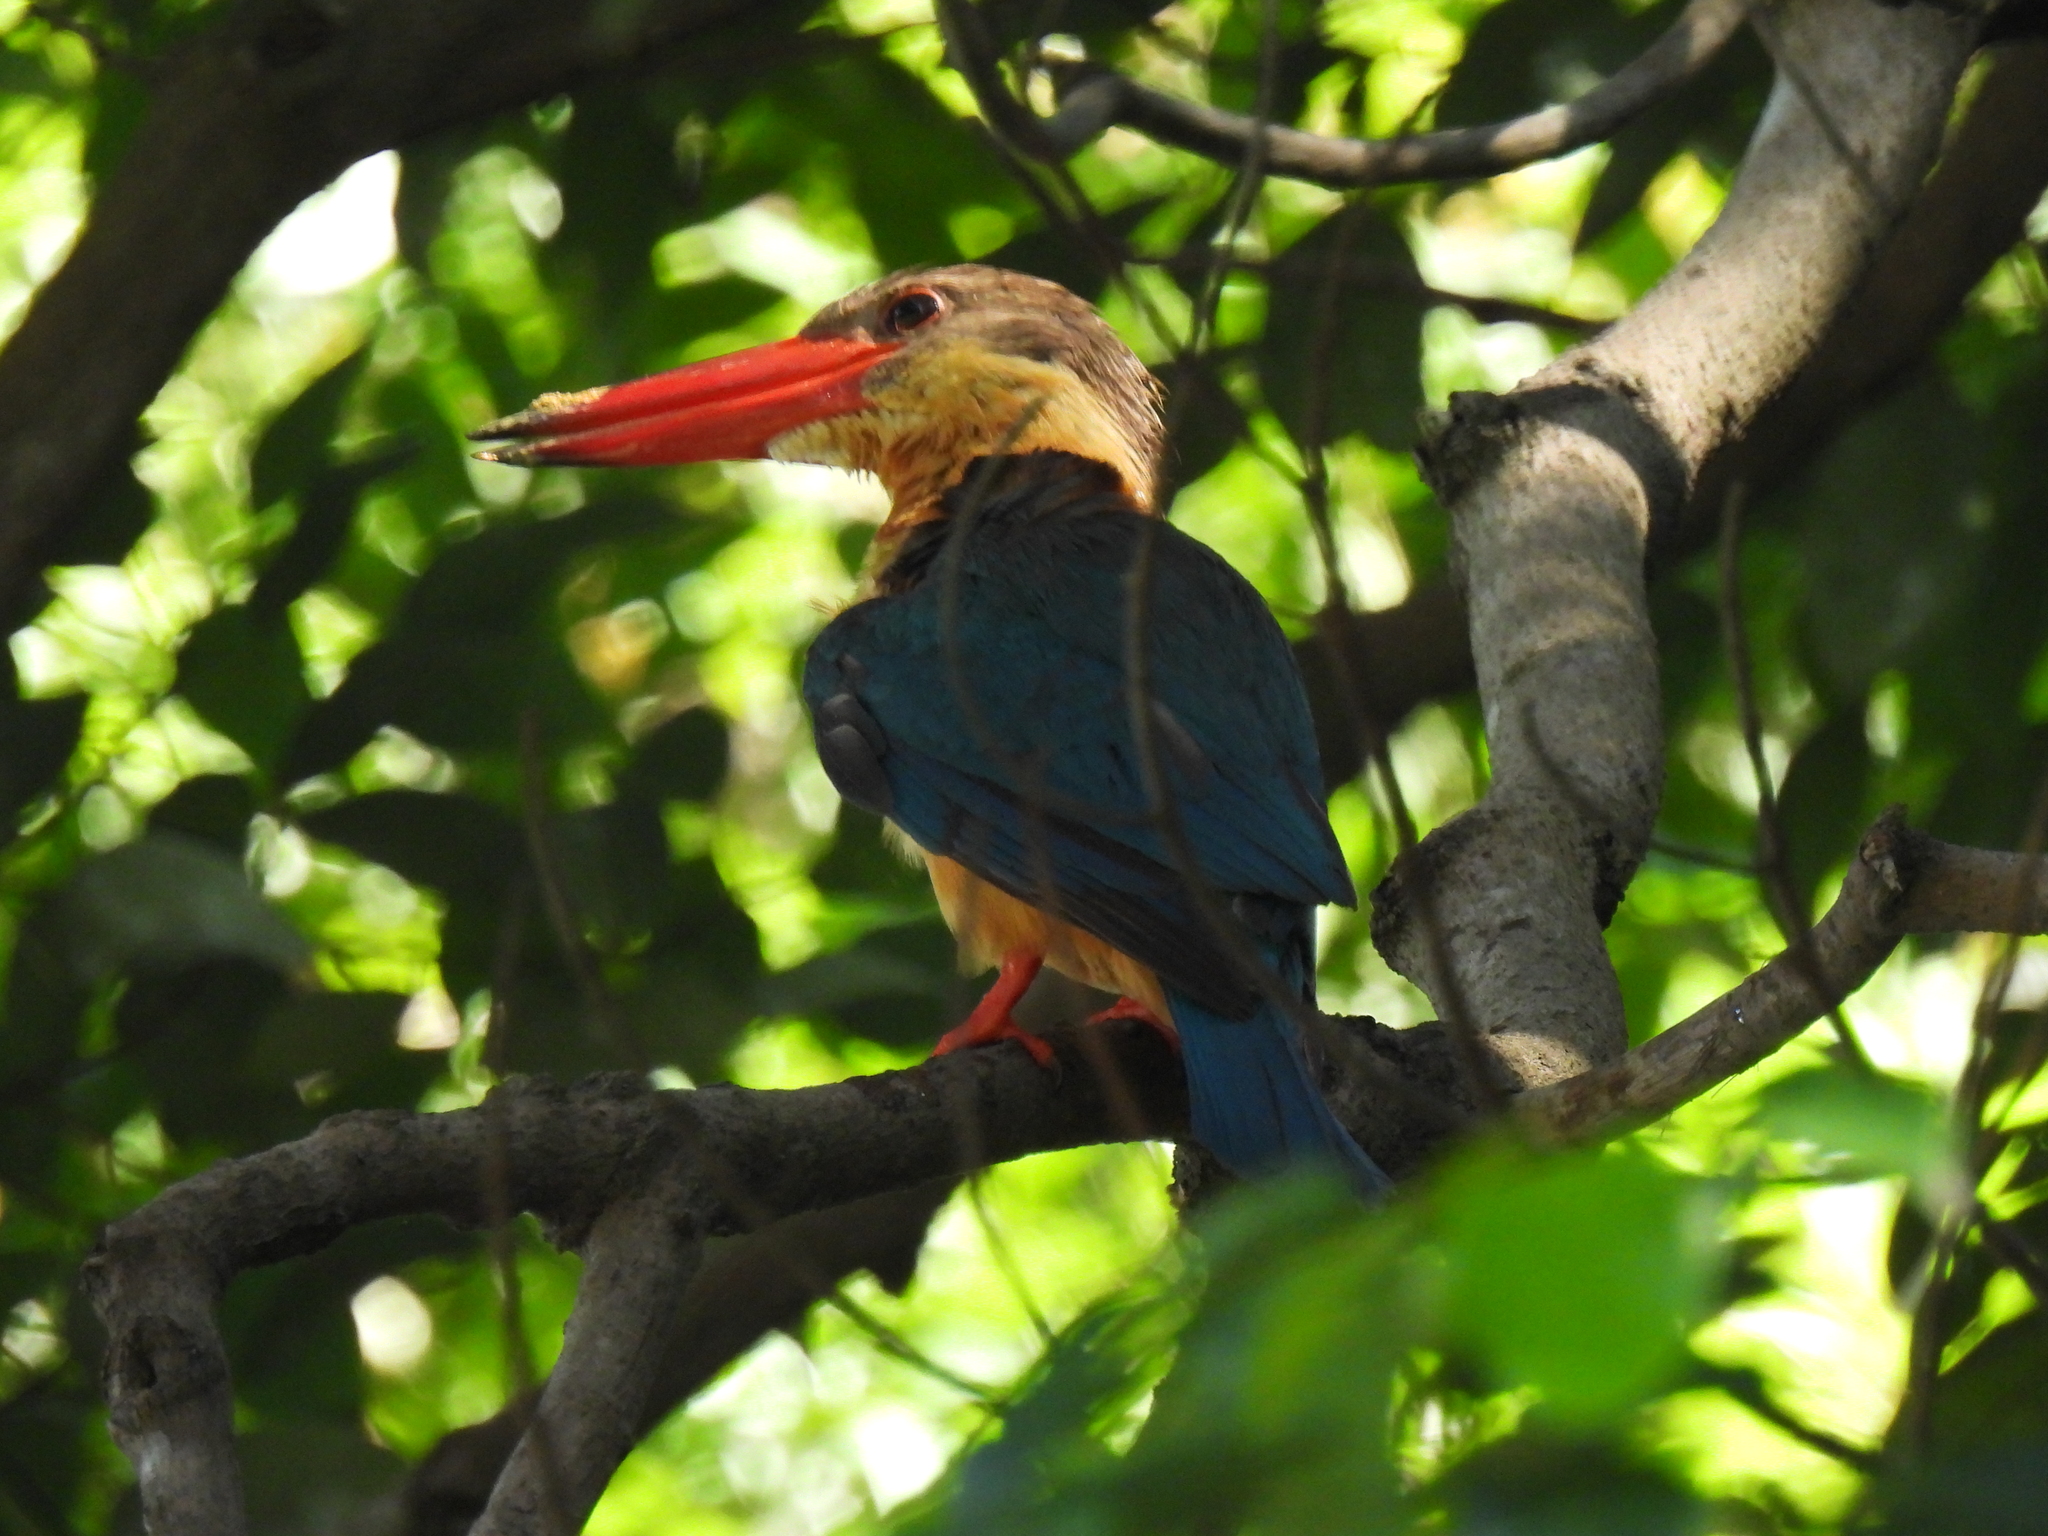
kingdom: Animalia
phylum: Chordata
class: Aves
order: Coraciiformes
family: Alcedinidae
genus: Pelargopsis
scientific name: Pelargopsis capensis
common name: Stork-billed kingfisher
